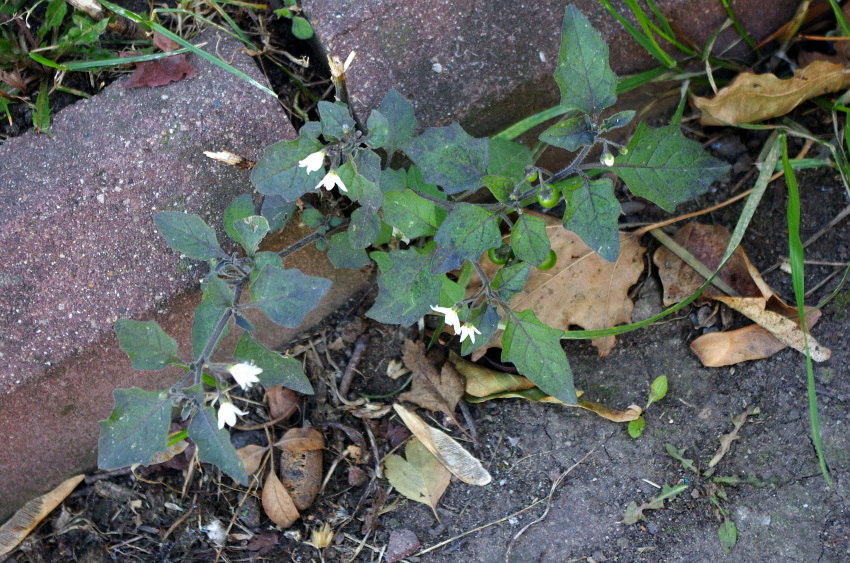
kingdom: Plantae
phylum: Tracheophyta
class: Magnoliopsida
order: Solanales
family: Solanaceae
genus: Solanum
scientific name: Solanum nigrum
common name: Black nightshade
